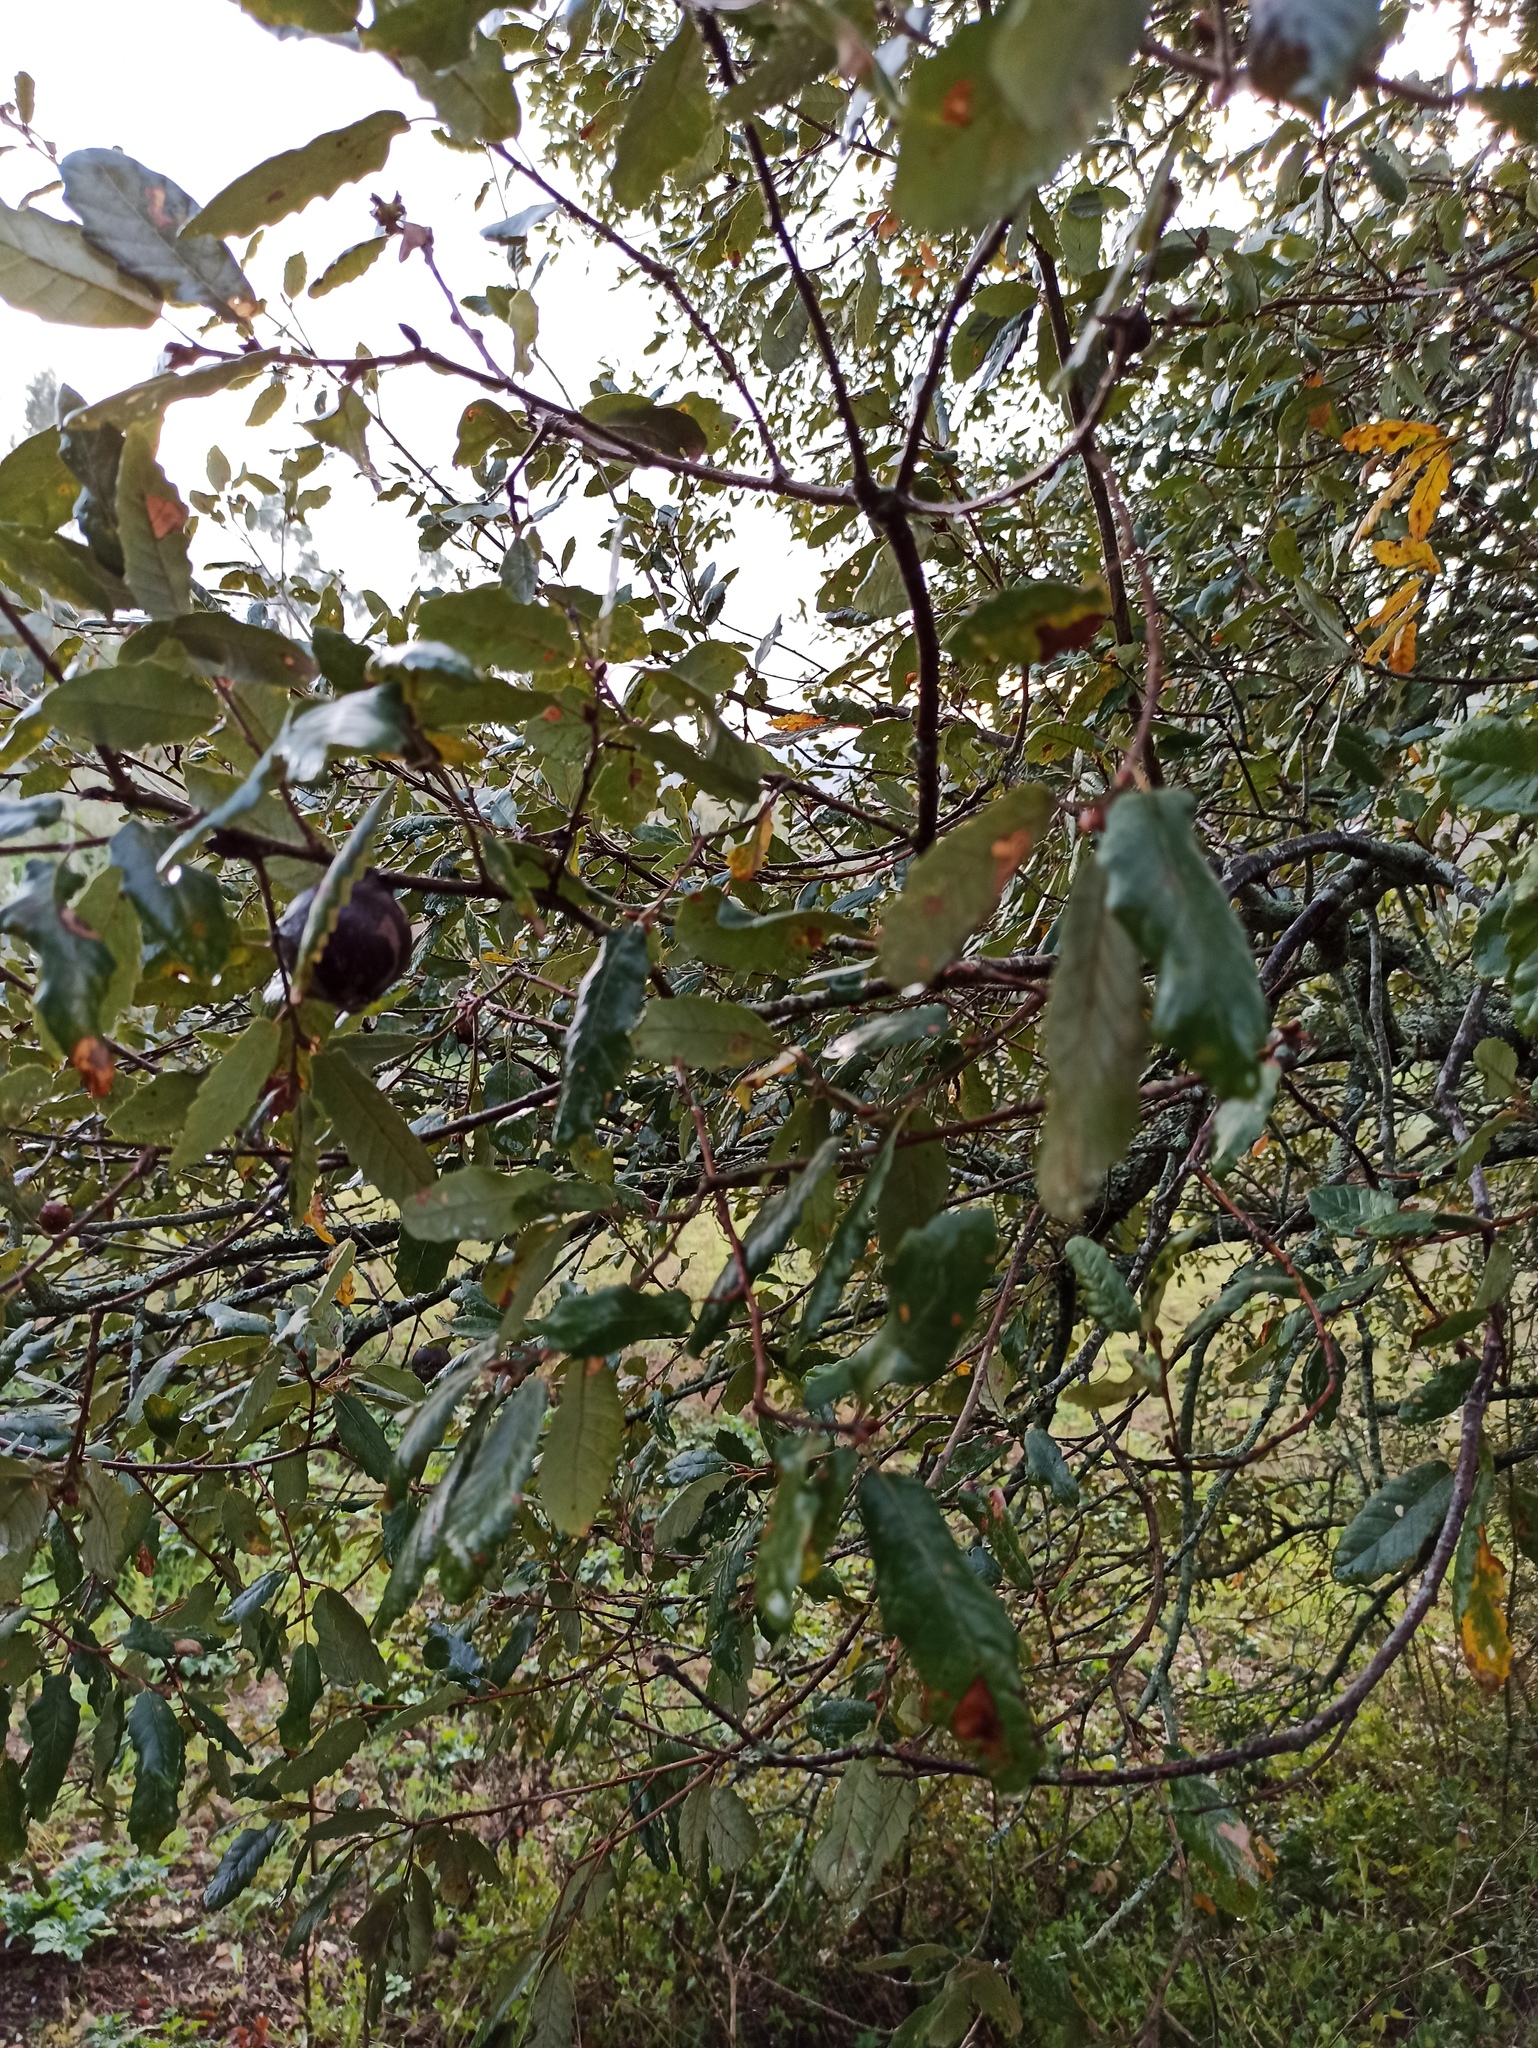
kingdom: Plantae
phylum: Tracheophyta
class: Magnoliopsida
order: Fagales
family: Fagaceae
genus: Quercus
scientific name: Quercus faginea
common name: Gall oak tree
